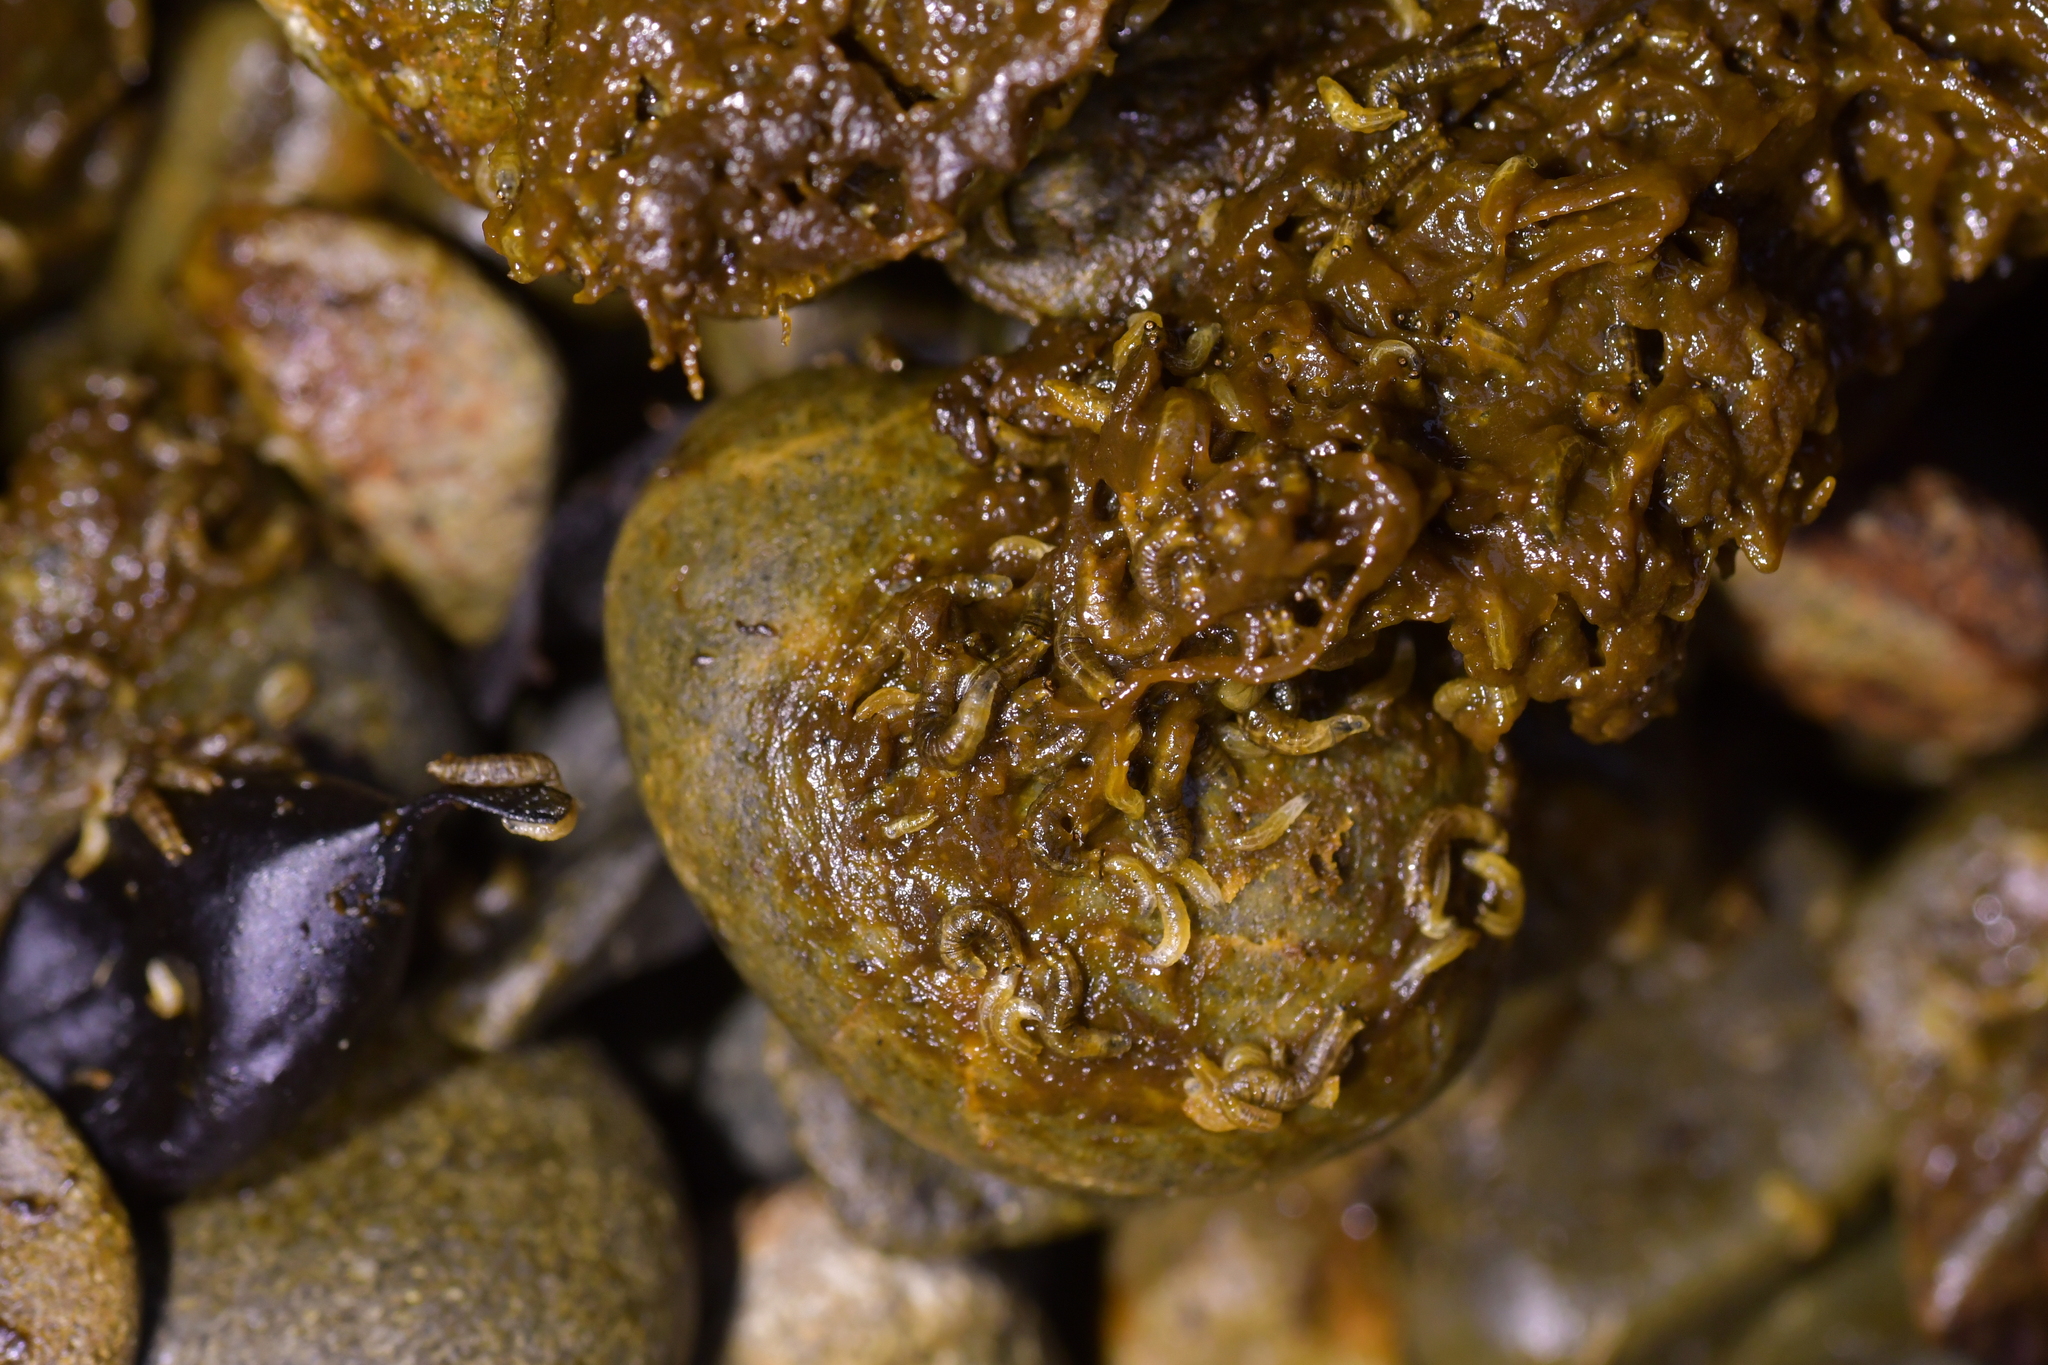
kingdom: Animalia
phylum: Arthropoda
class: Insecta
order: Diptera
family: Coelopidae
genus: Chaetocoelopa
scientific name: Chaetocoelopa littoralis
